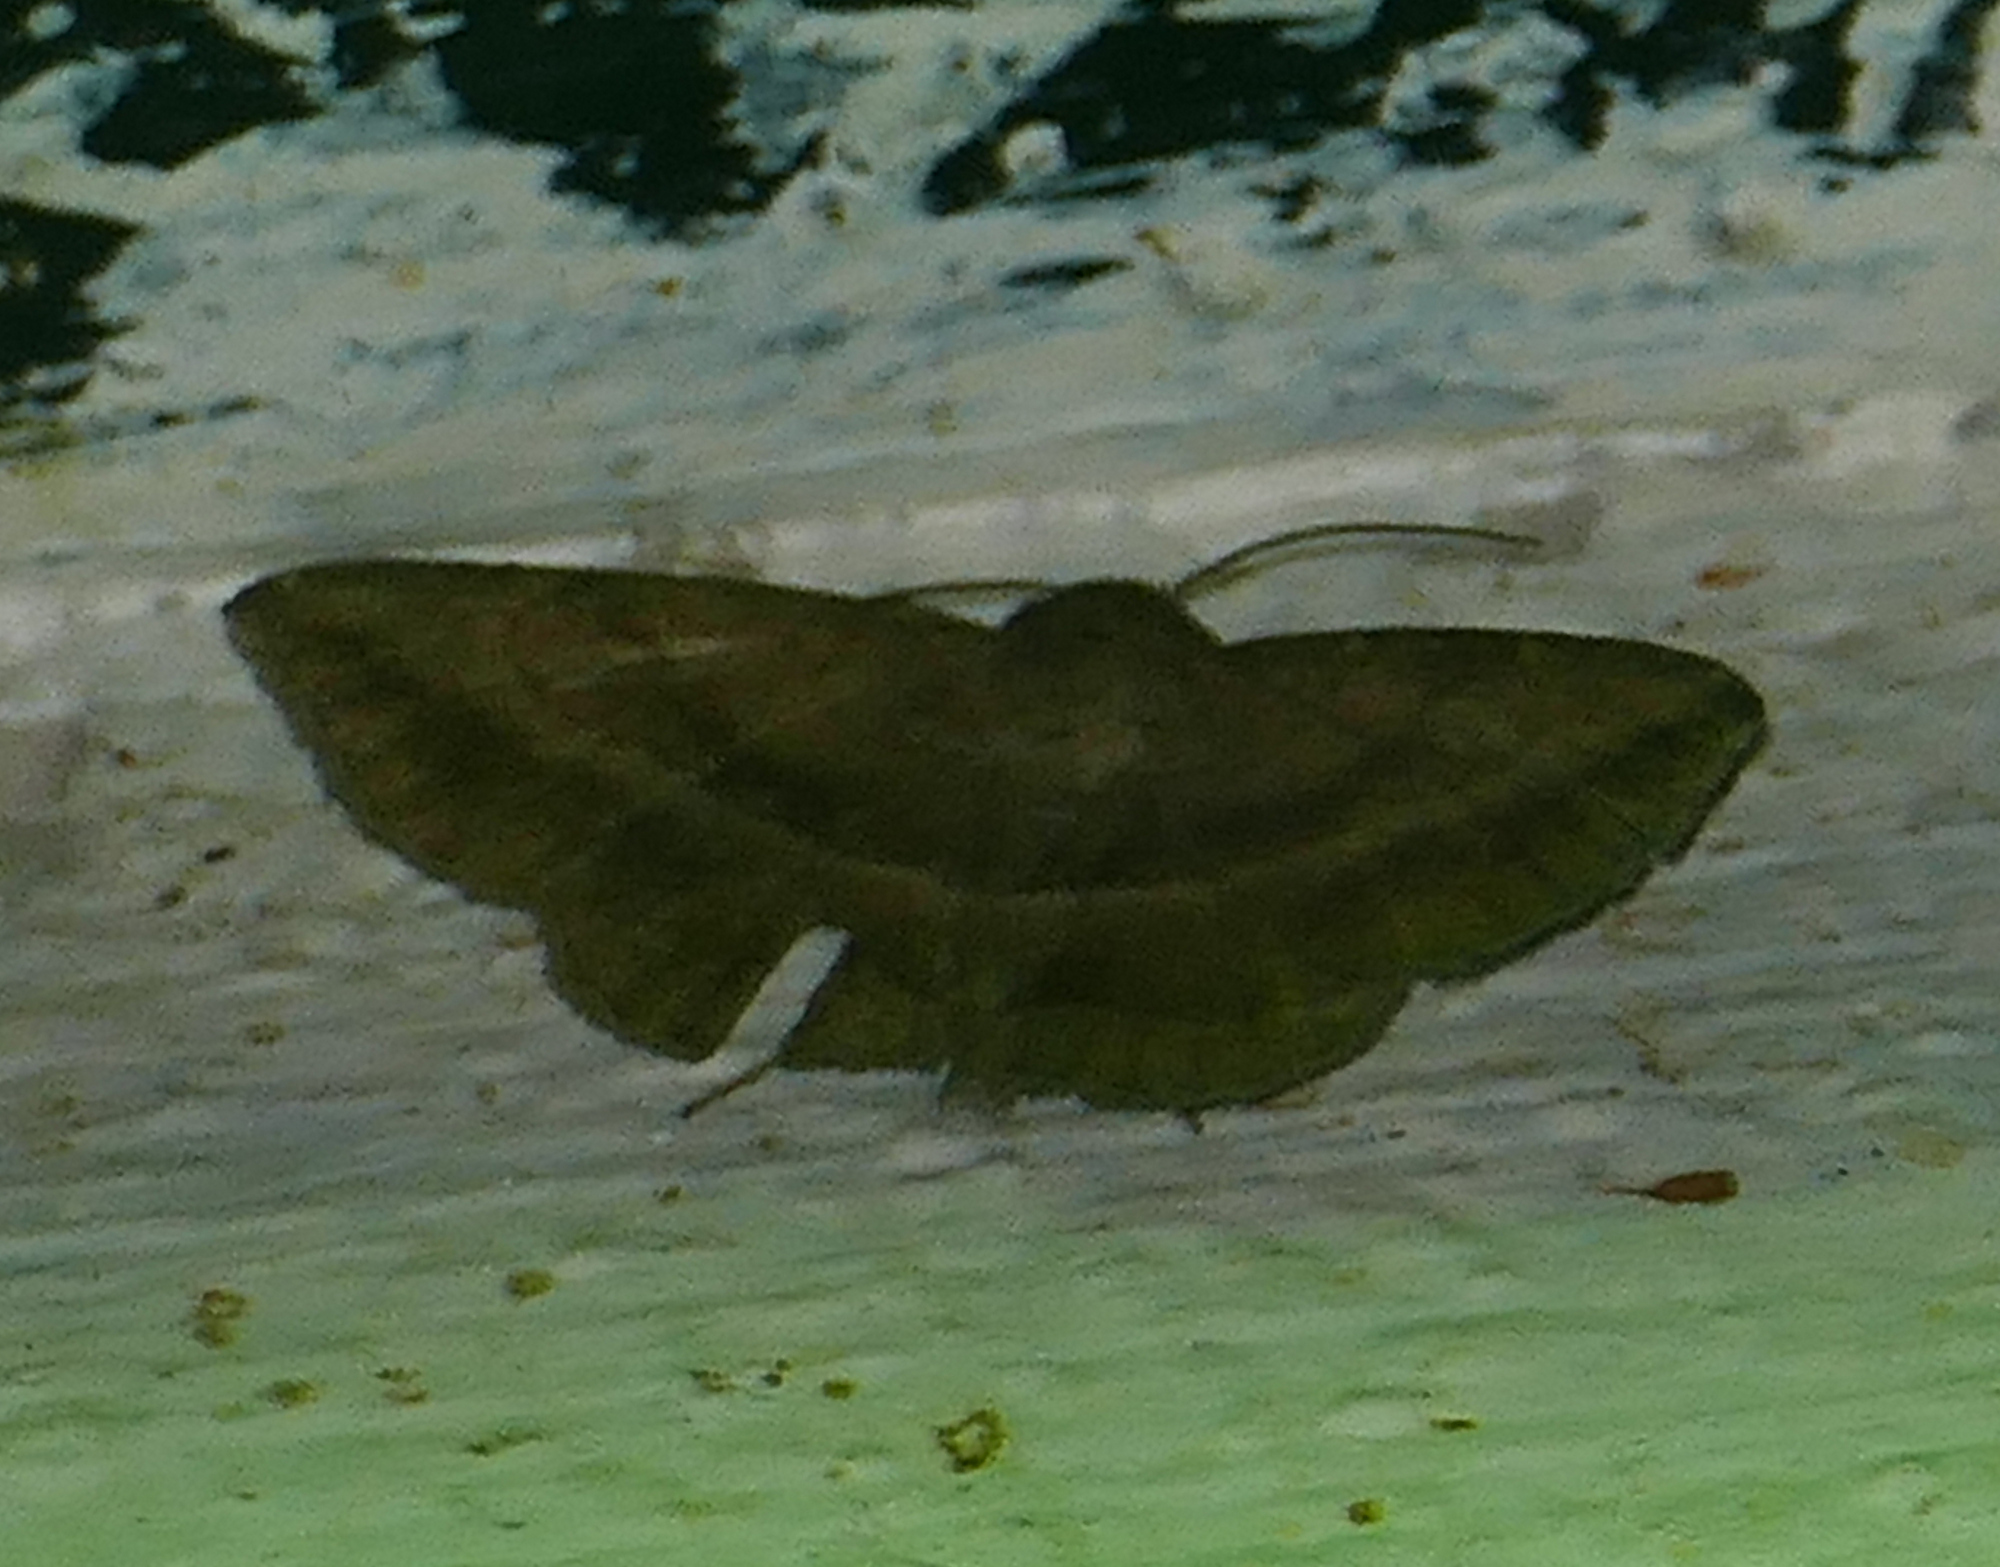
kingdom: Animalia
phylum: Arthropoda
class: Insecta
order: Lepidoptera
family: Erebidae
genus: Lesmone
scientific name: Lesmone detrahens
